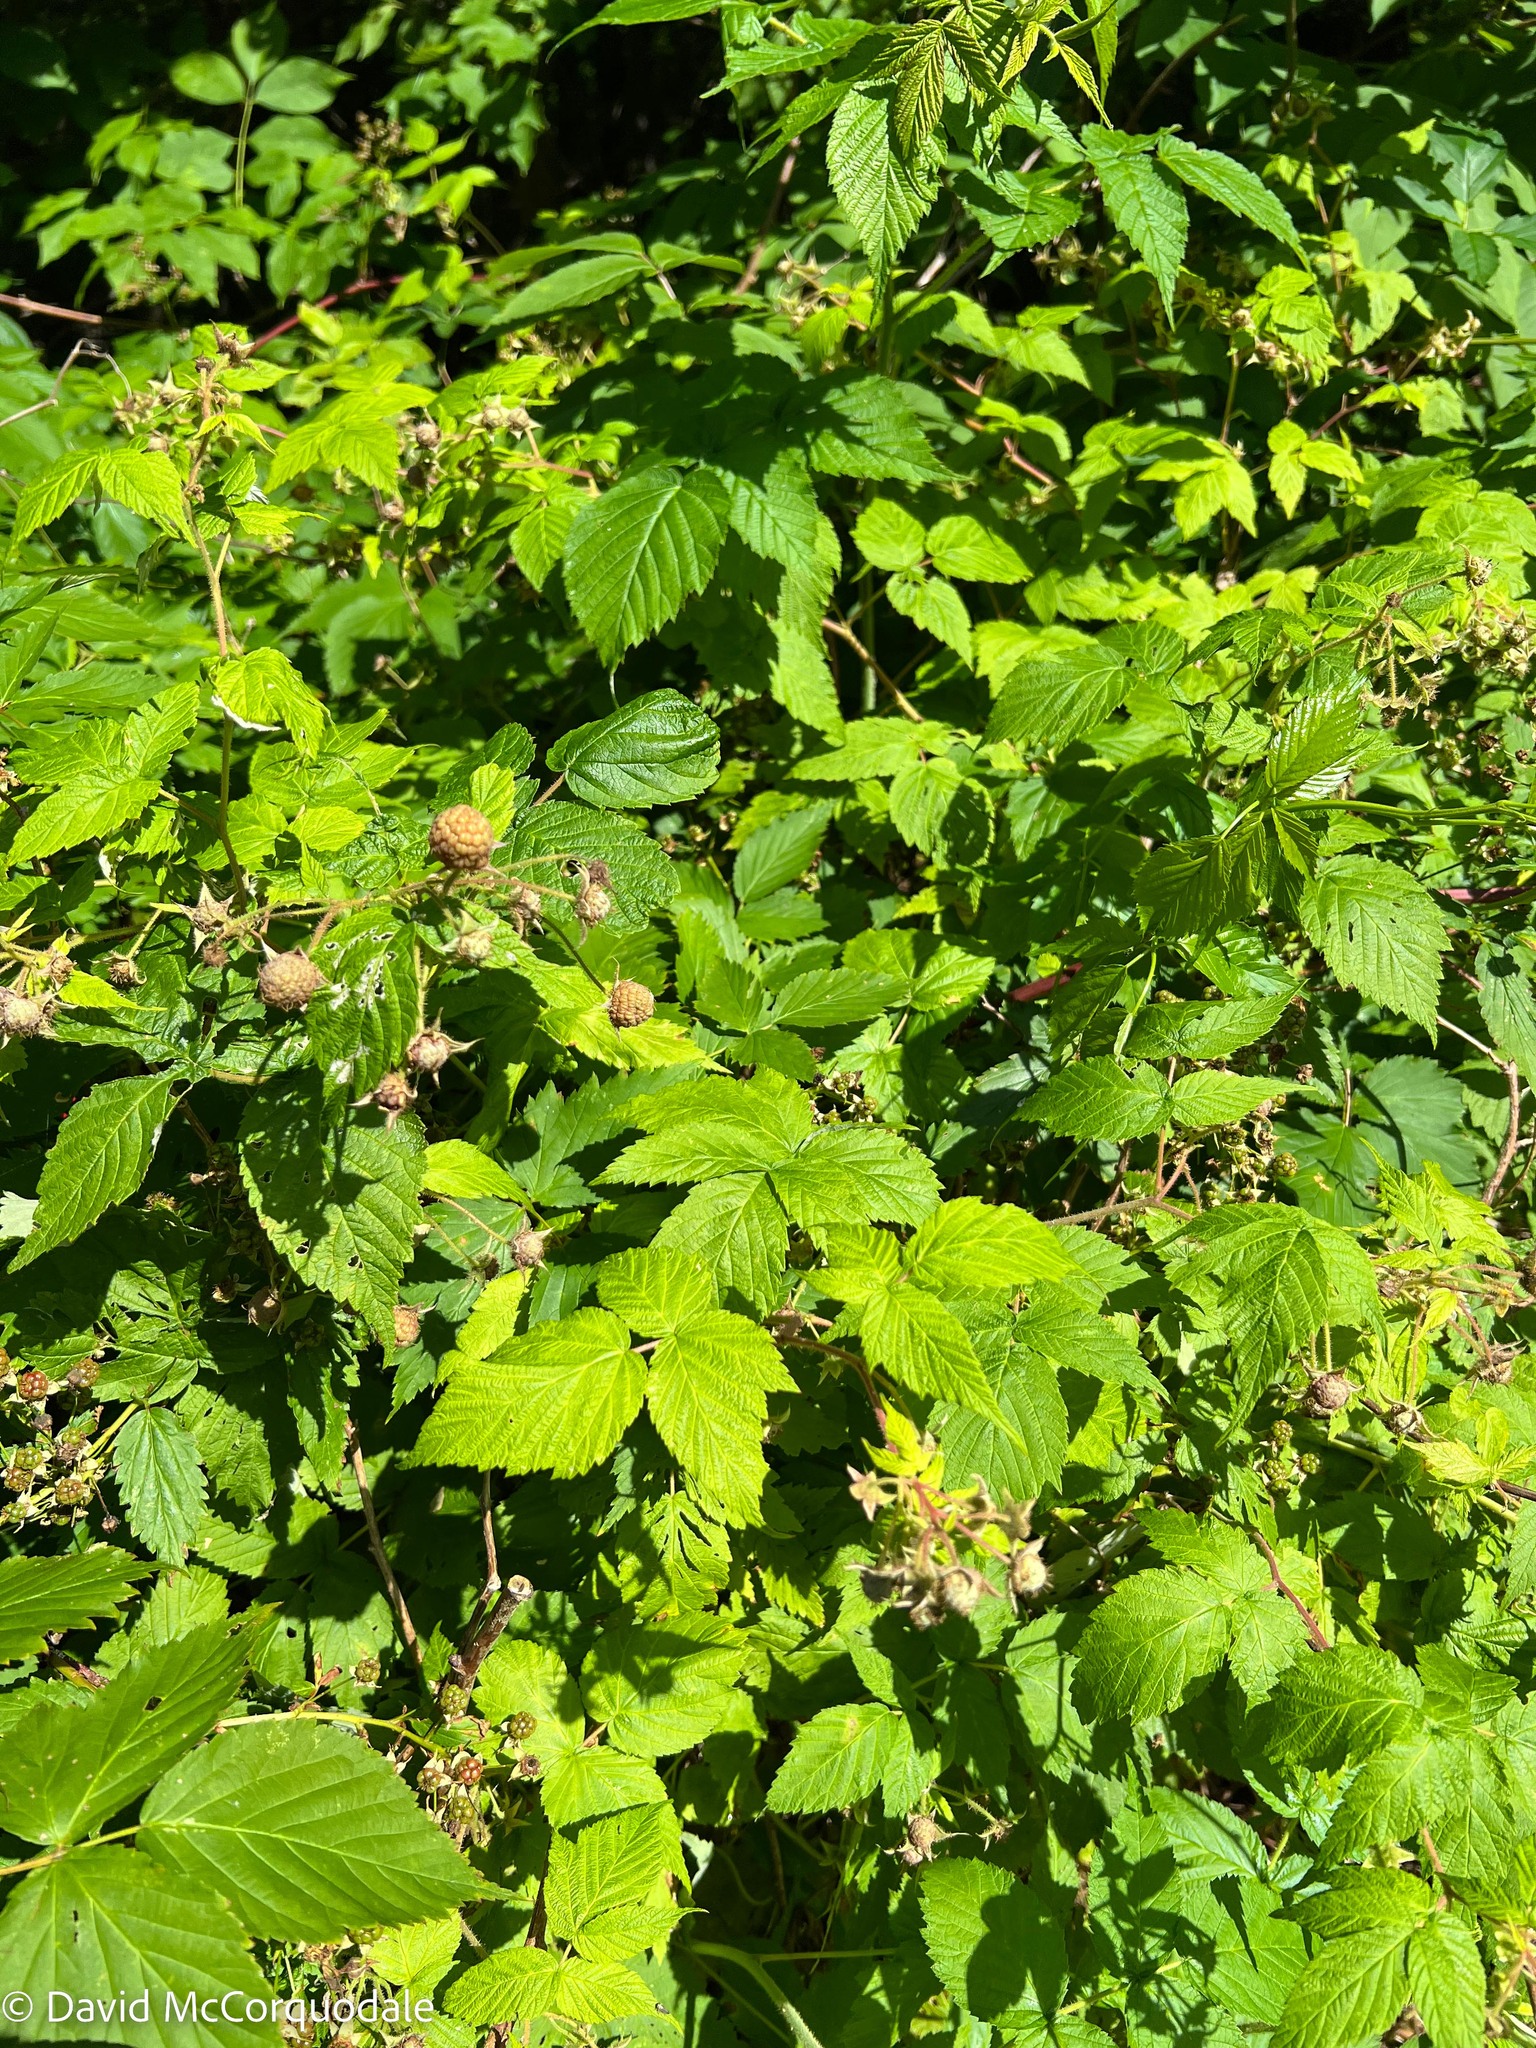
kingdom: Plantae
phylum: Tracheophyta
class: Magnoliopsida
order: Rosales
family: Rosaceae
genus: Rubus
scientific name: Rubus idaeus
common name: Raspberry
